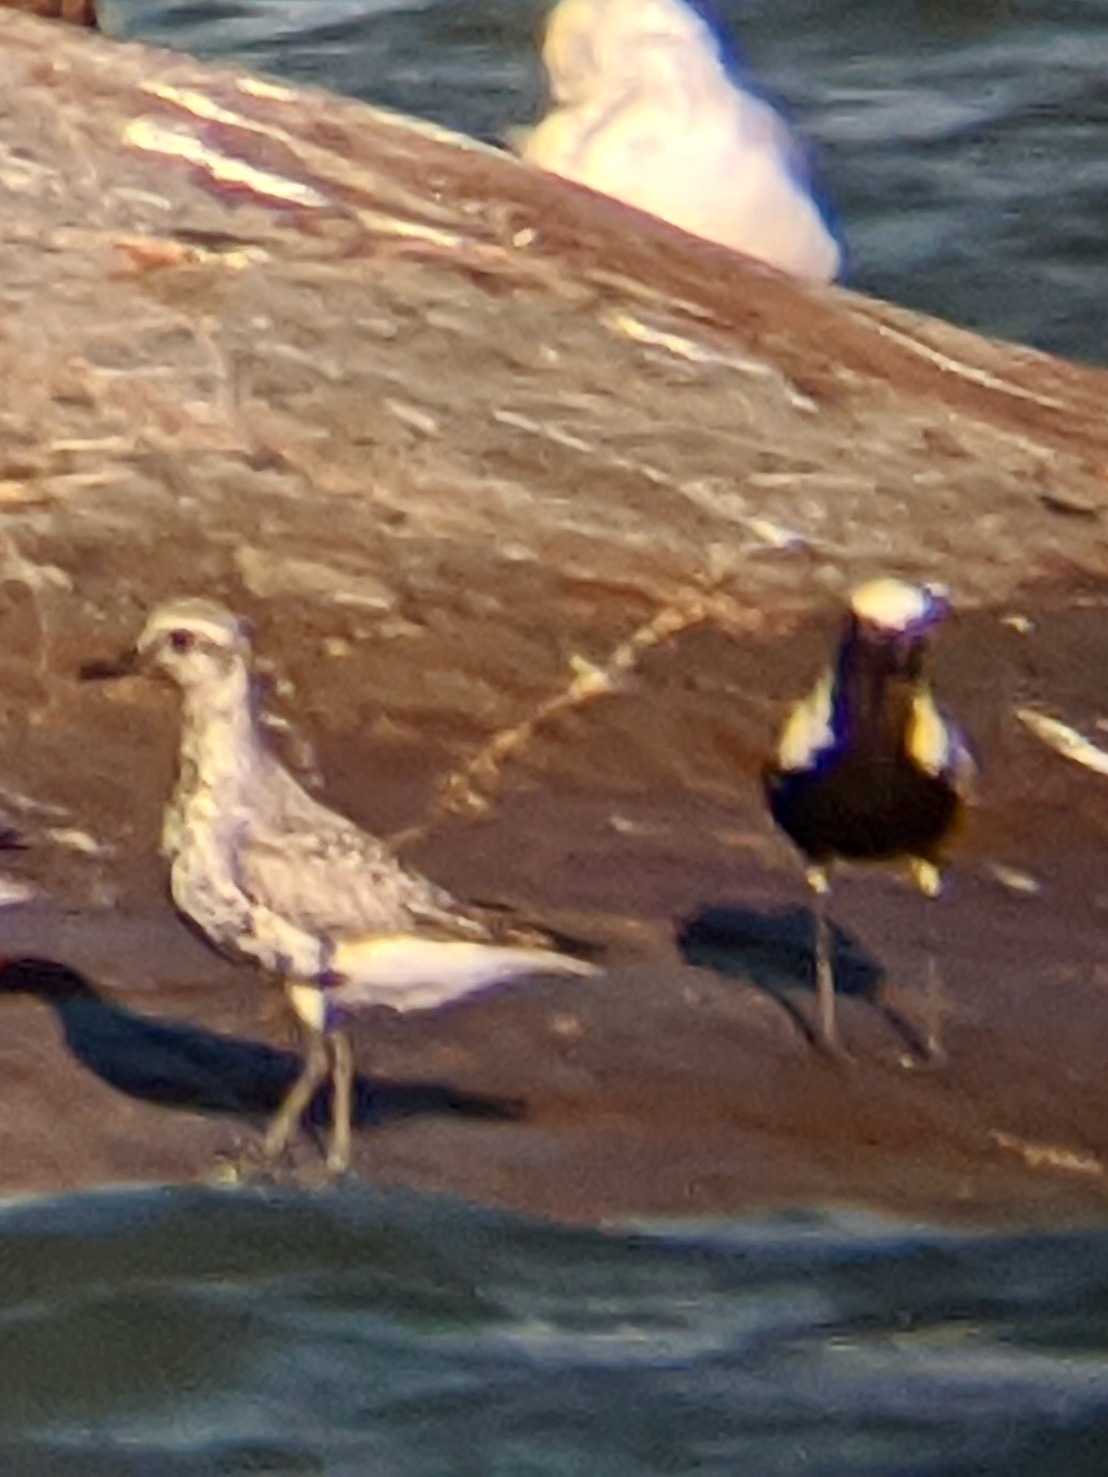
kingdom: Animalia
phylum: Chordata
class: Aves
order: Charadriiformes
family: Charadriidae
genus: Pluvialis
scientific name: Pluvialis squatarola
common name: Grey plover
